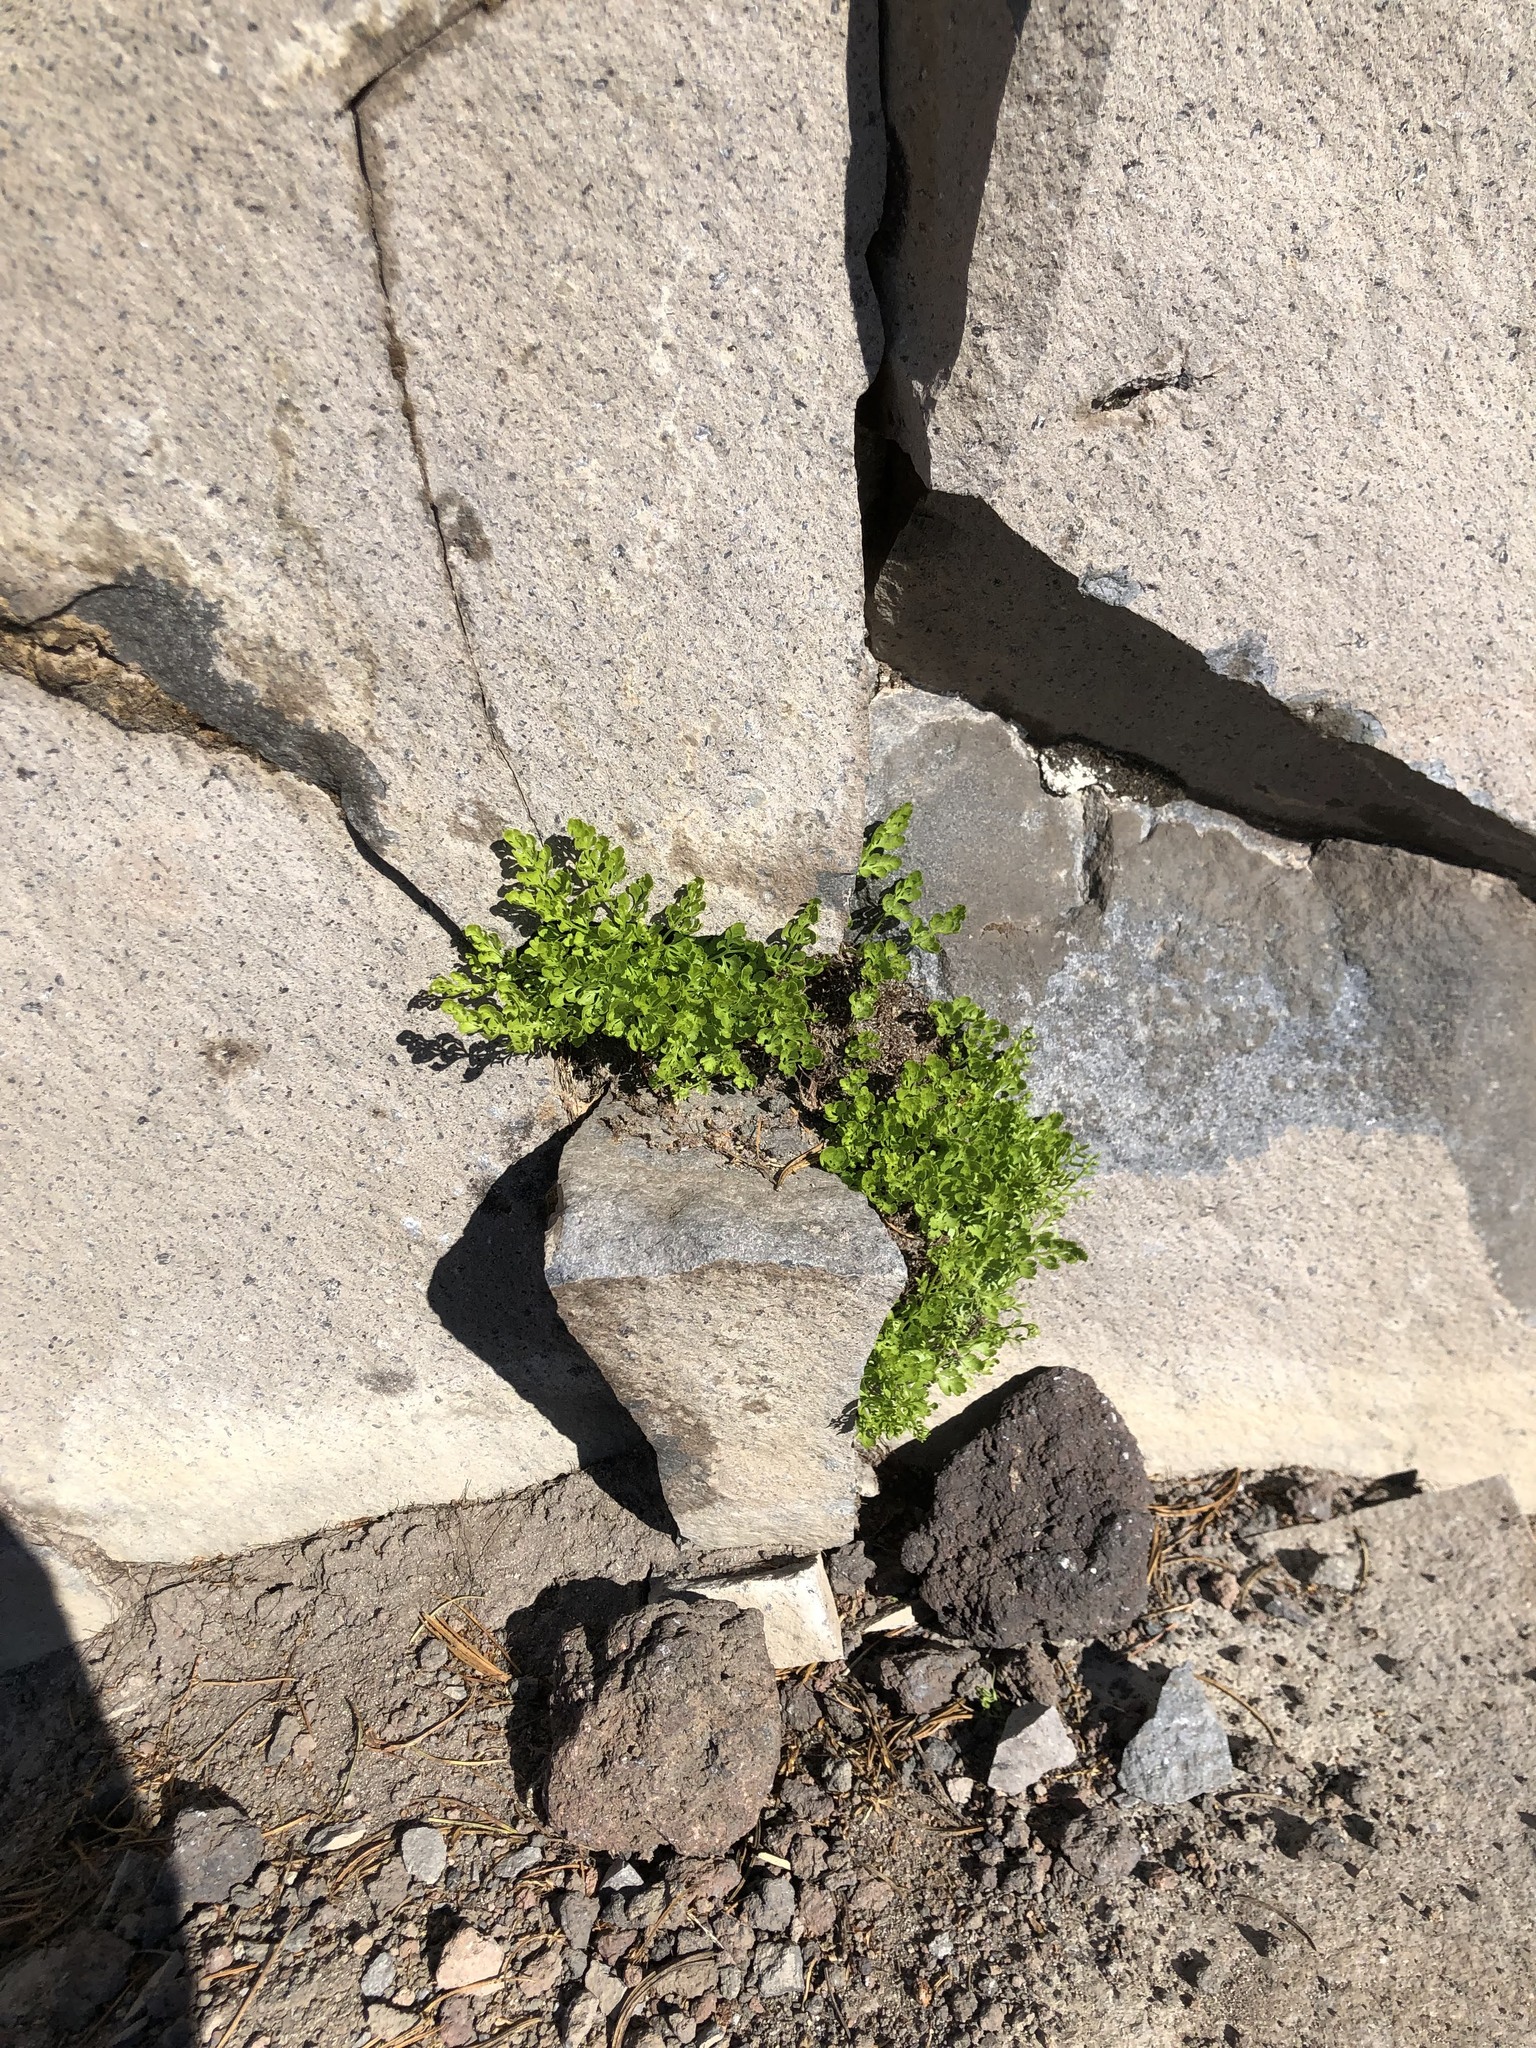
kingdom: Plantae
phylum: Tracheophyta
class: Polypodiopsida
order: Polypodiales
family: Pteridaceae
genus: Cryptogramma
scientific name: Cryptogramma cascadensis
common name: Cascade parsley fern
